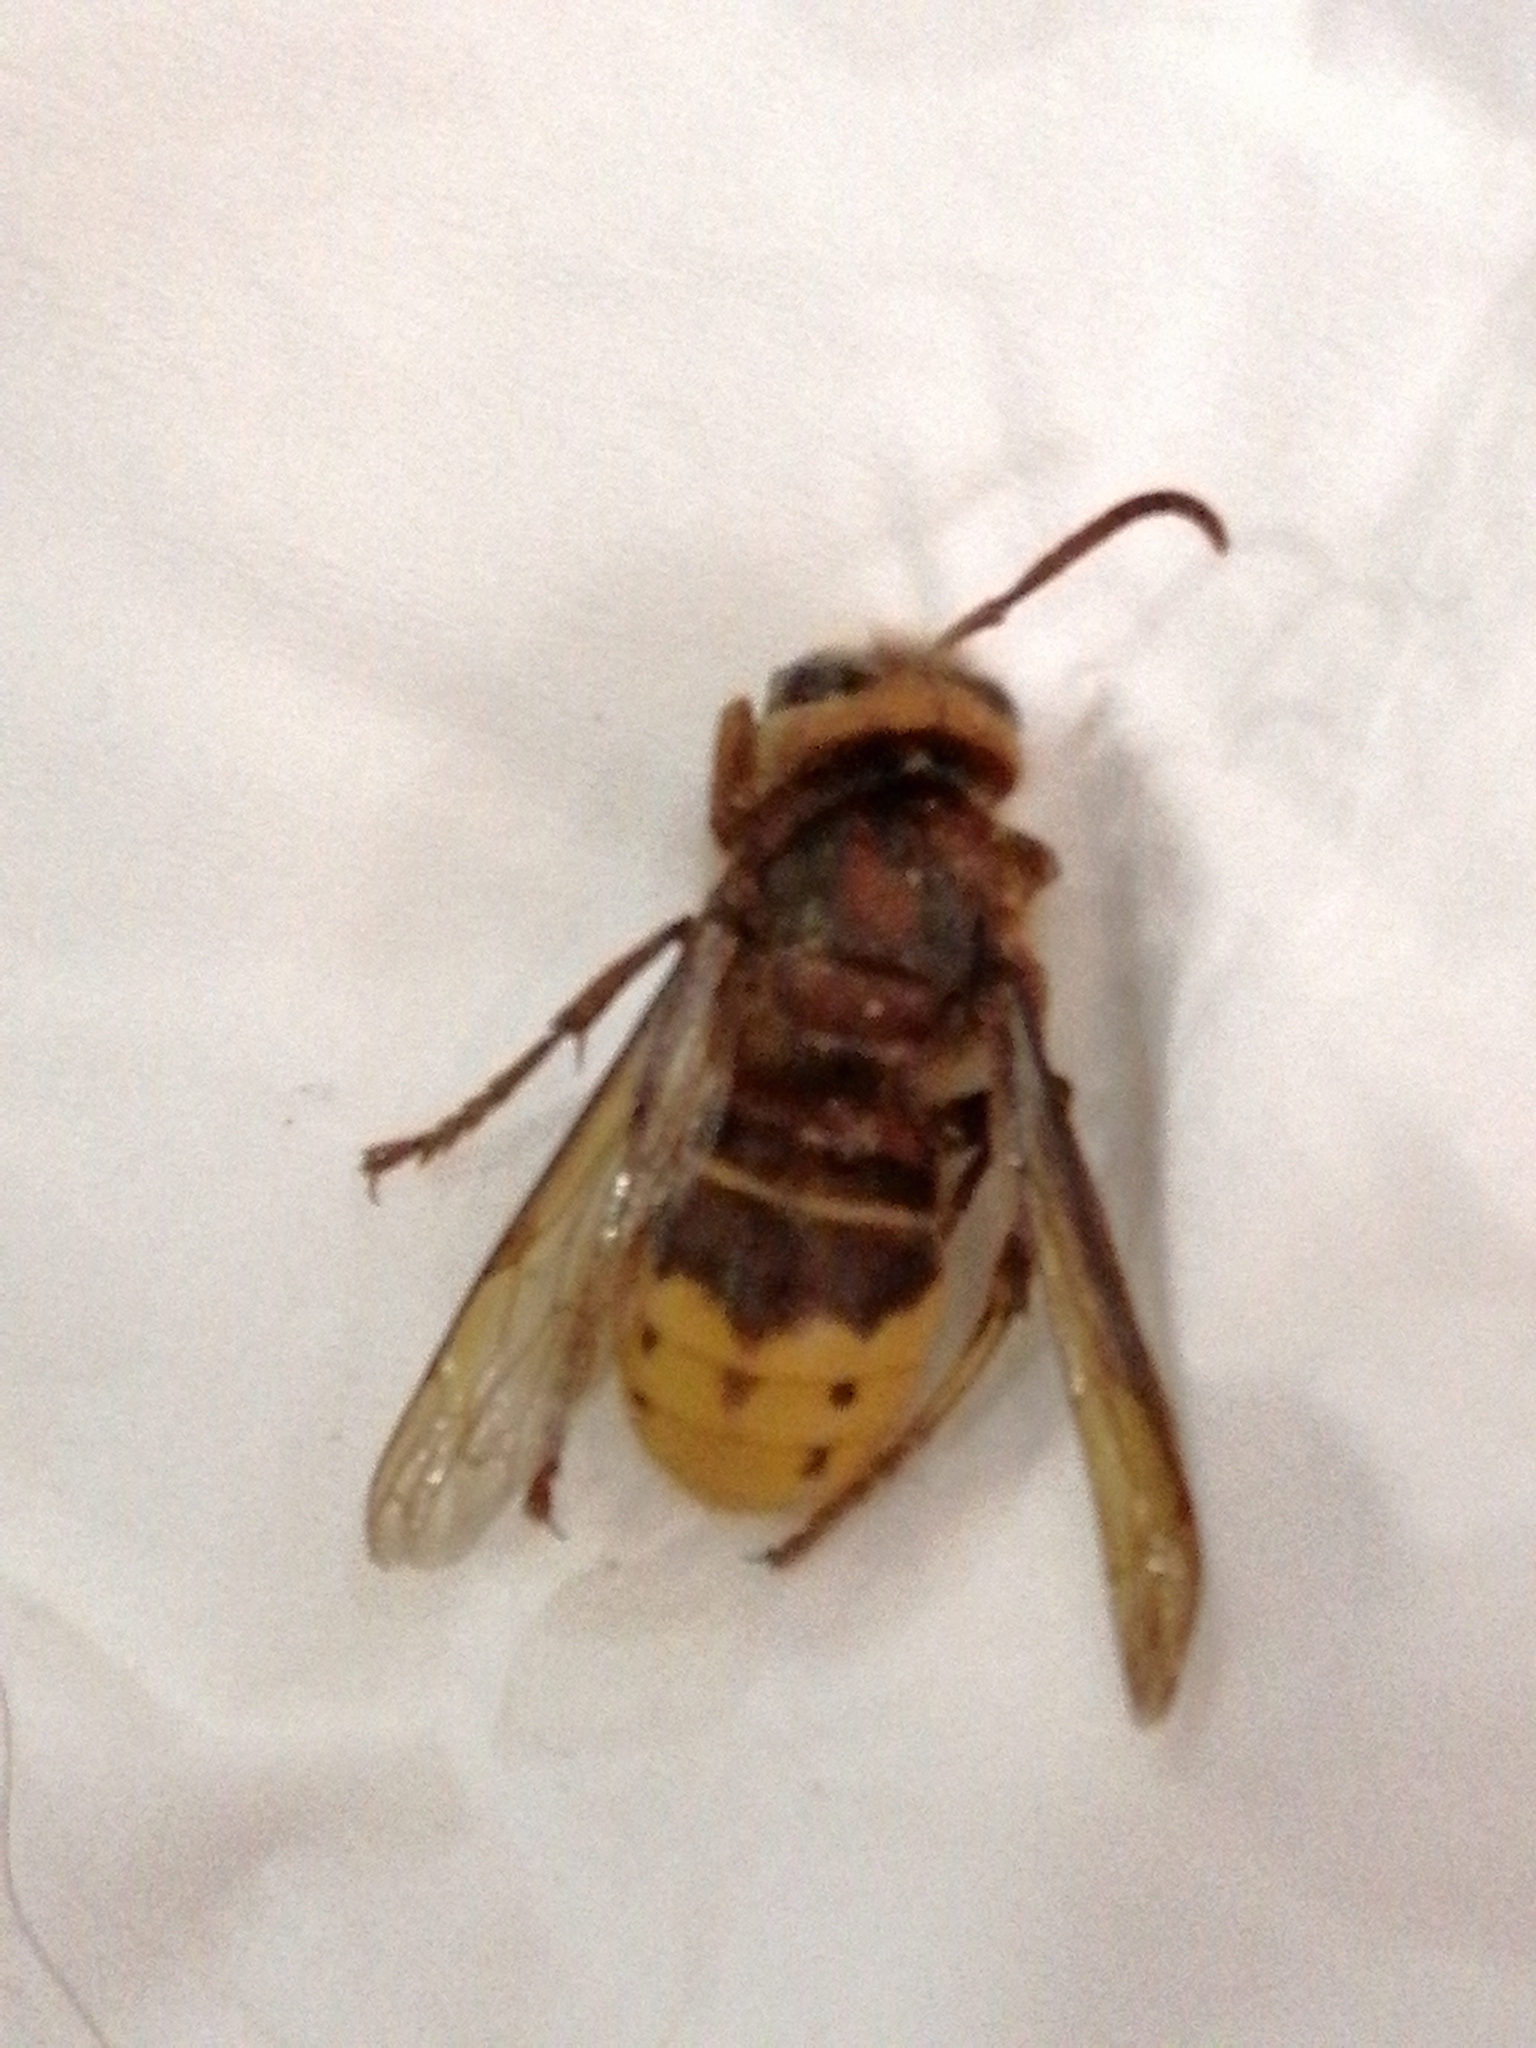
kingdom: Animalia
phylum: Arthropoda
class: Insecta
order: Hymenoptera
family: Vespidae
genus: Vespa
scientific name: Vespa crabro
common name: Hornet
